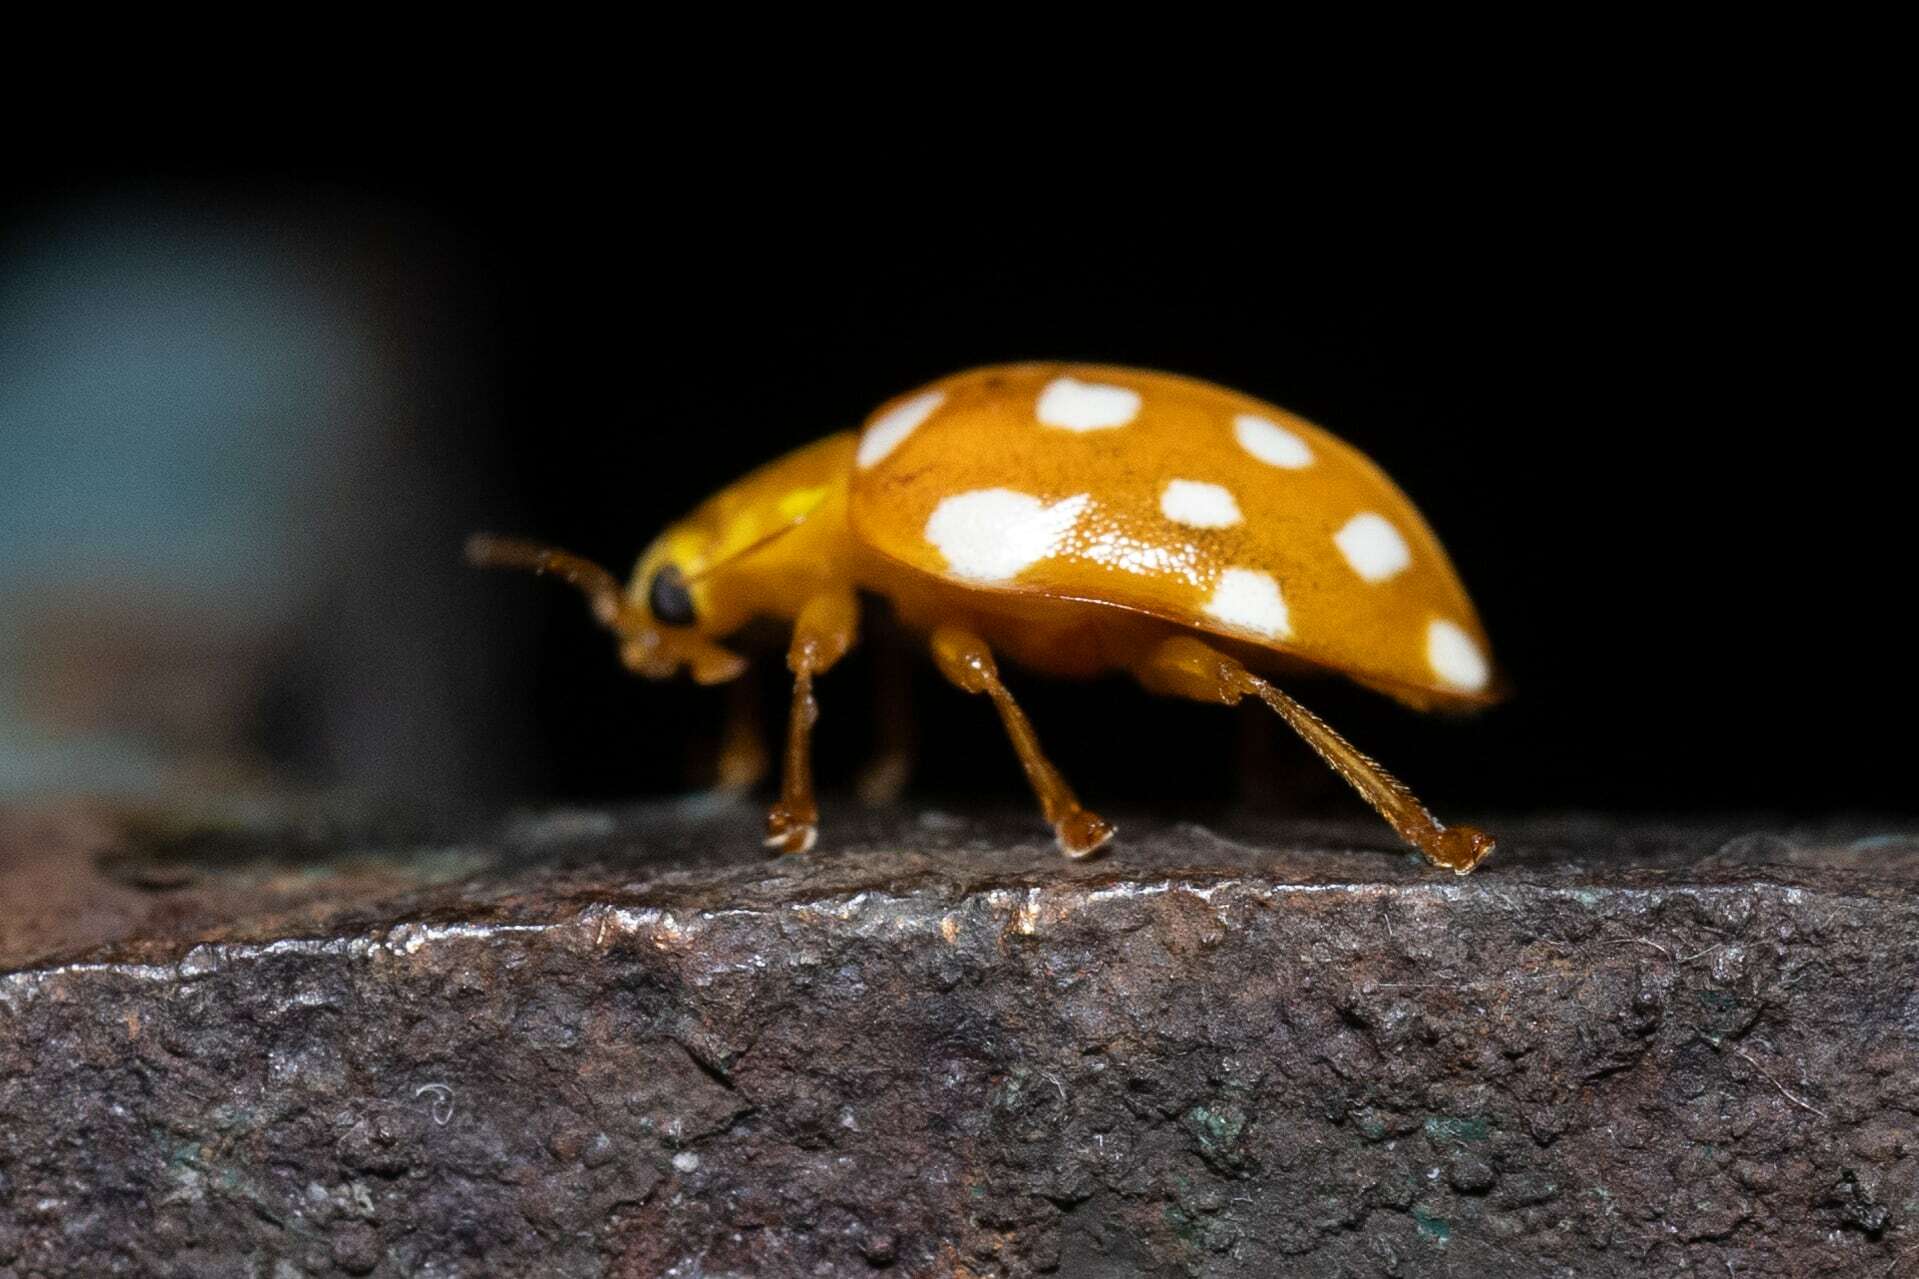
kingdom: Animalia
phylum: Arthropoda
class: Insecta
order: Coleoptera
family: Coccinellidae
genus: Halyzia
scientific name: Halyzia sedecimguttata
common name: Orange ladybird
